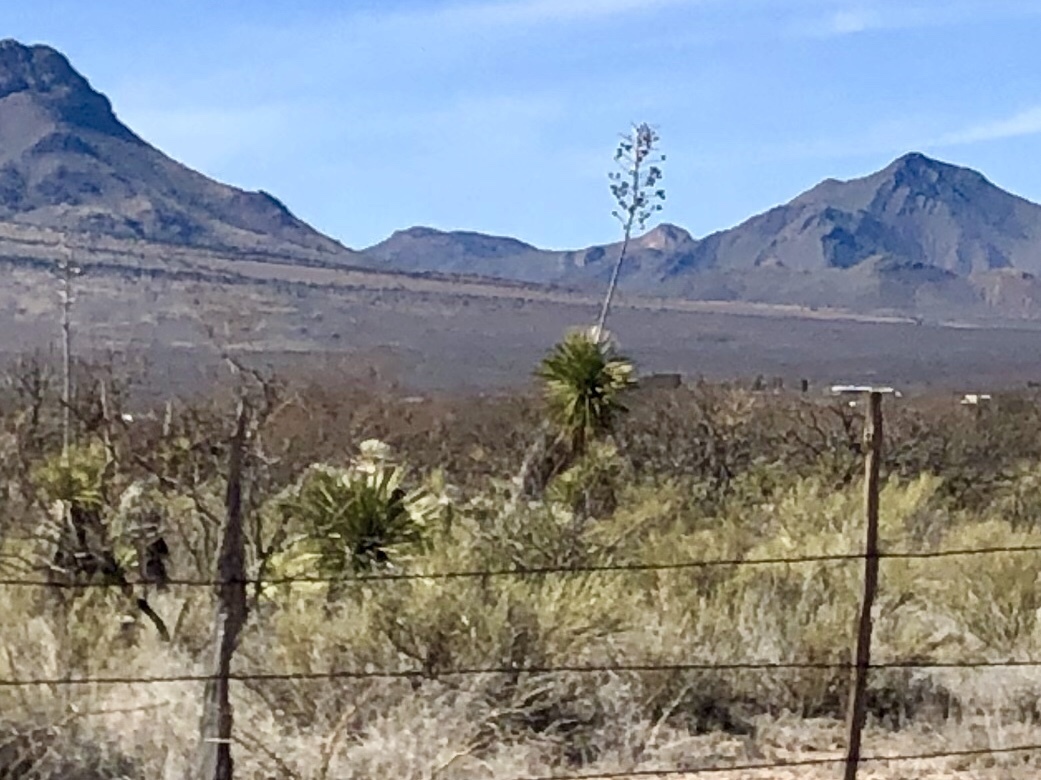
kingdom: Plantae
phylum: Tracheophyta
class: Liliopsida
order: Asparagales
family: Asparagaceae
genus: Yucca
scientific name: Yucca elata
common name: Palmella
